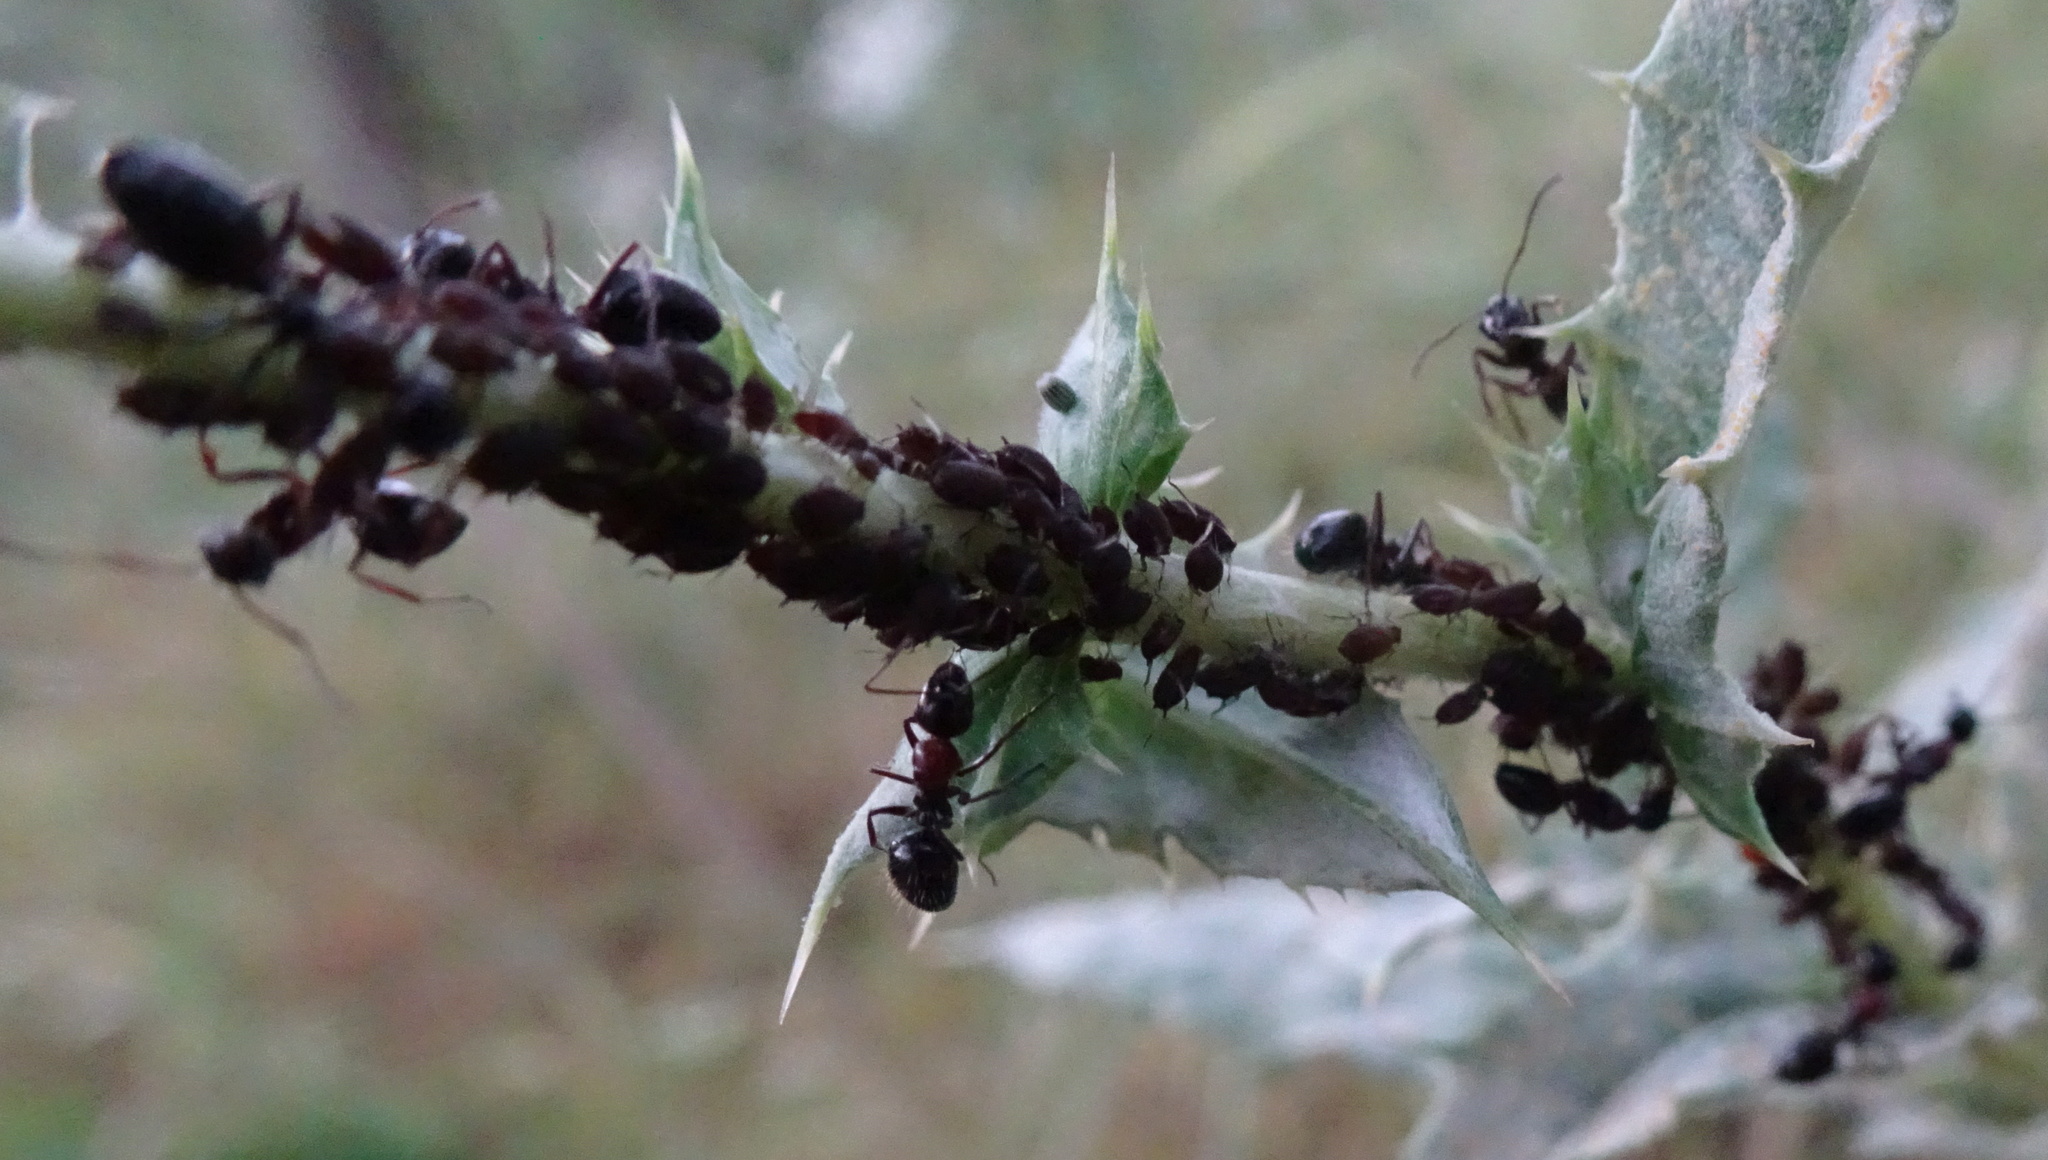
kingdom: Animalia
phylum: Arthropoda
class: Insecta
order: Hymenoptera
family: Formicidae
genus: Camponotus
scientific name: Camponotus interjectus
